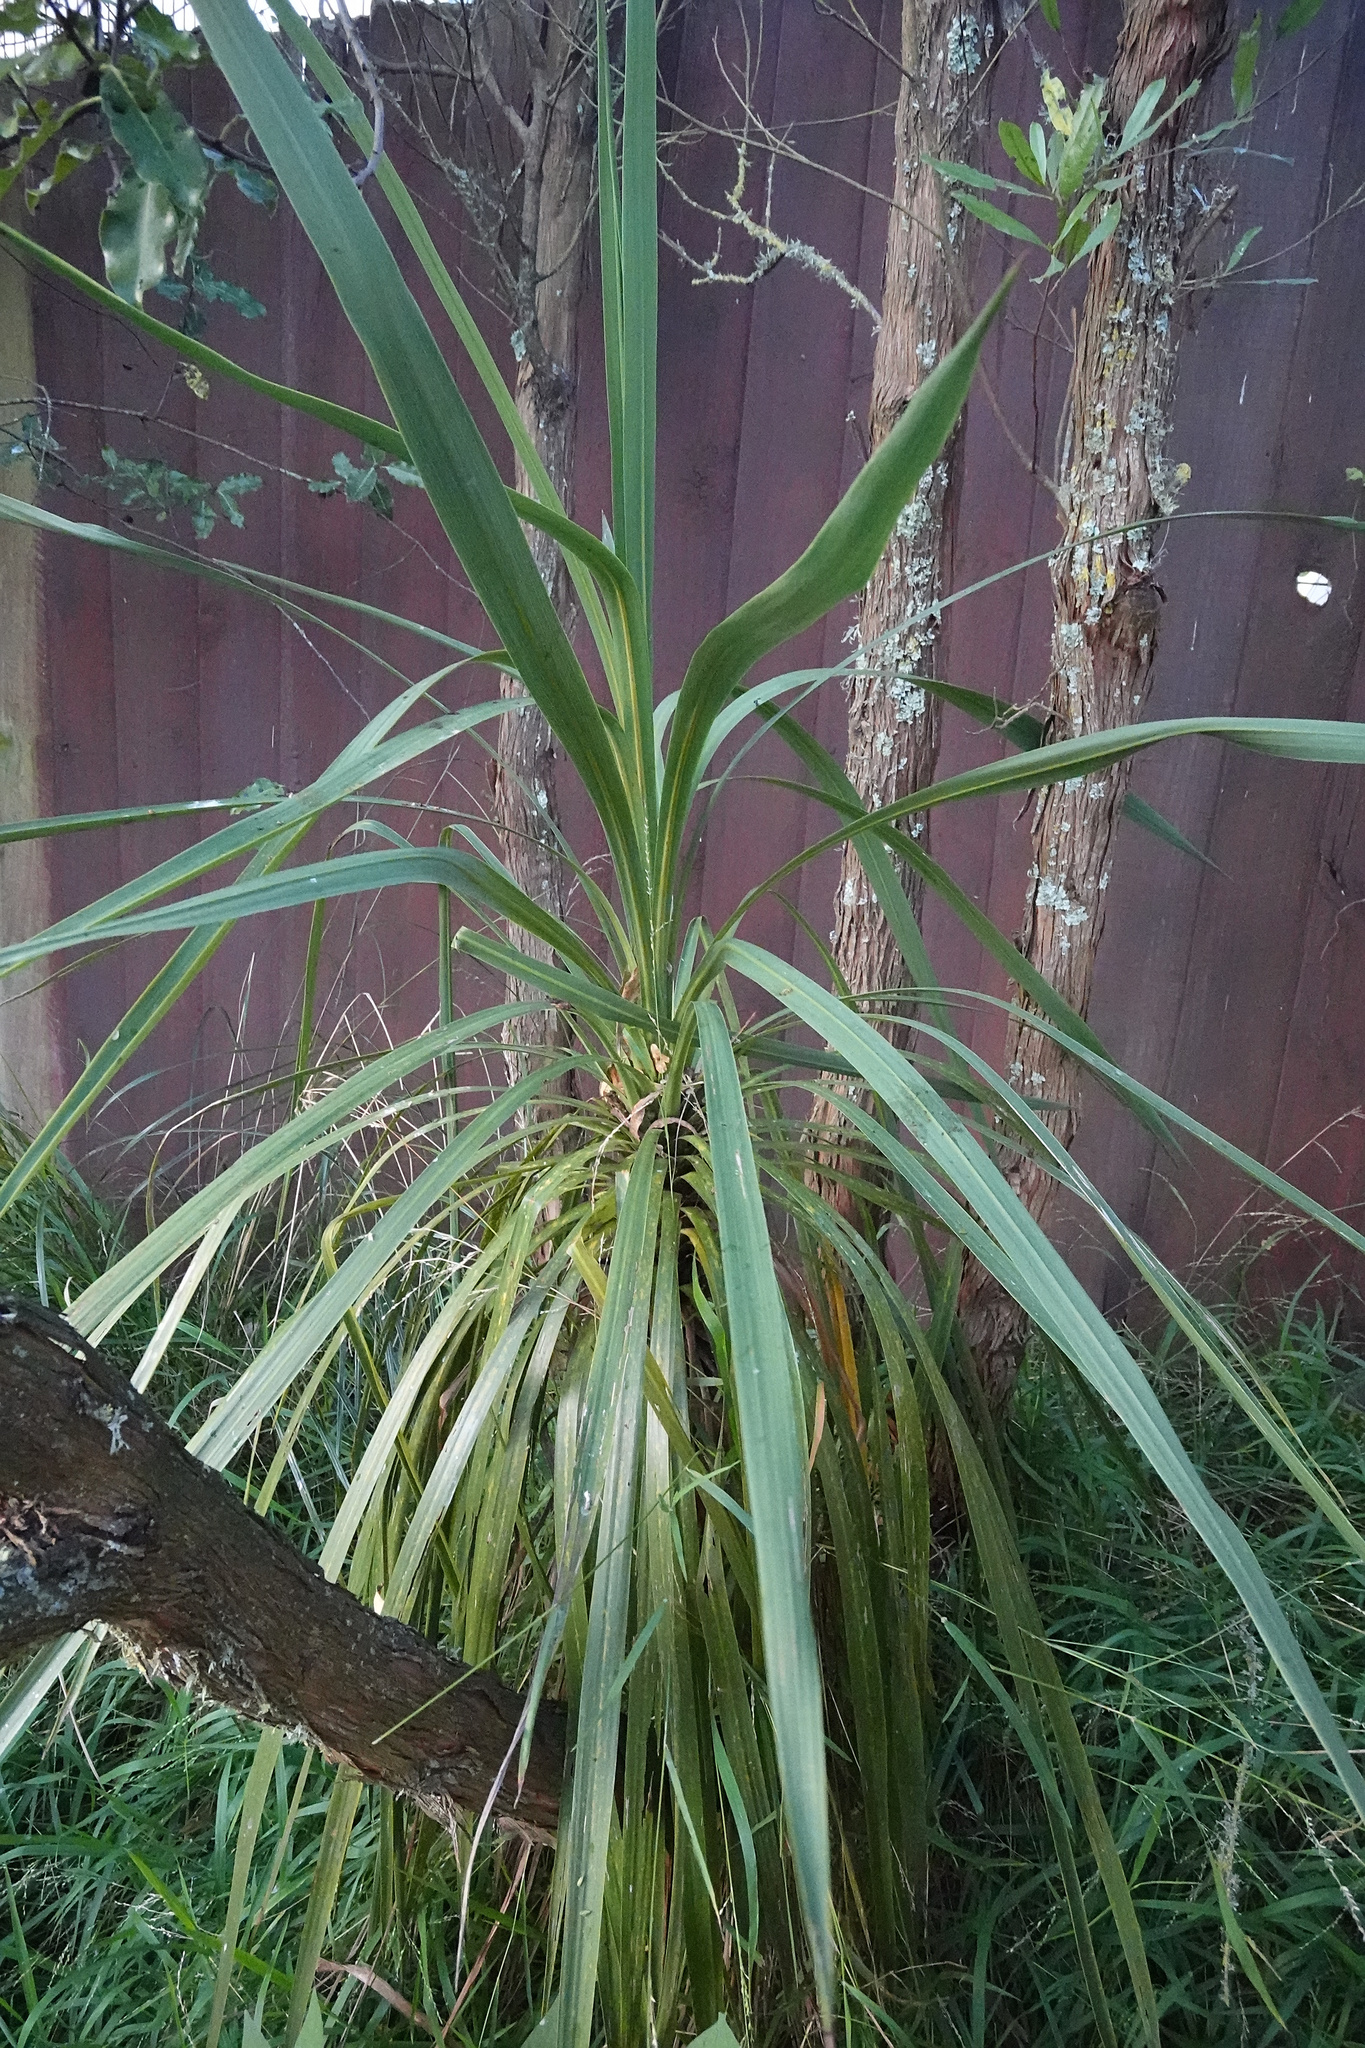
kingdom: Plantae
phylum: Tracheophyta
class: Liliopsida
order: Asparagales
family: Asparagaceae
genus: Cordyline
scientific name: Cordyline australis
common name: Cabbage-palm
